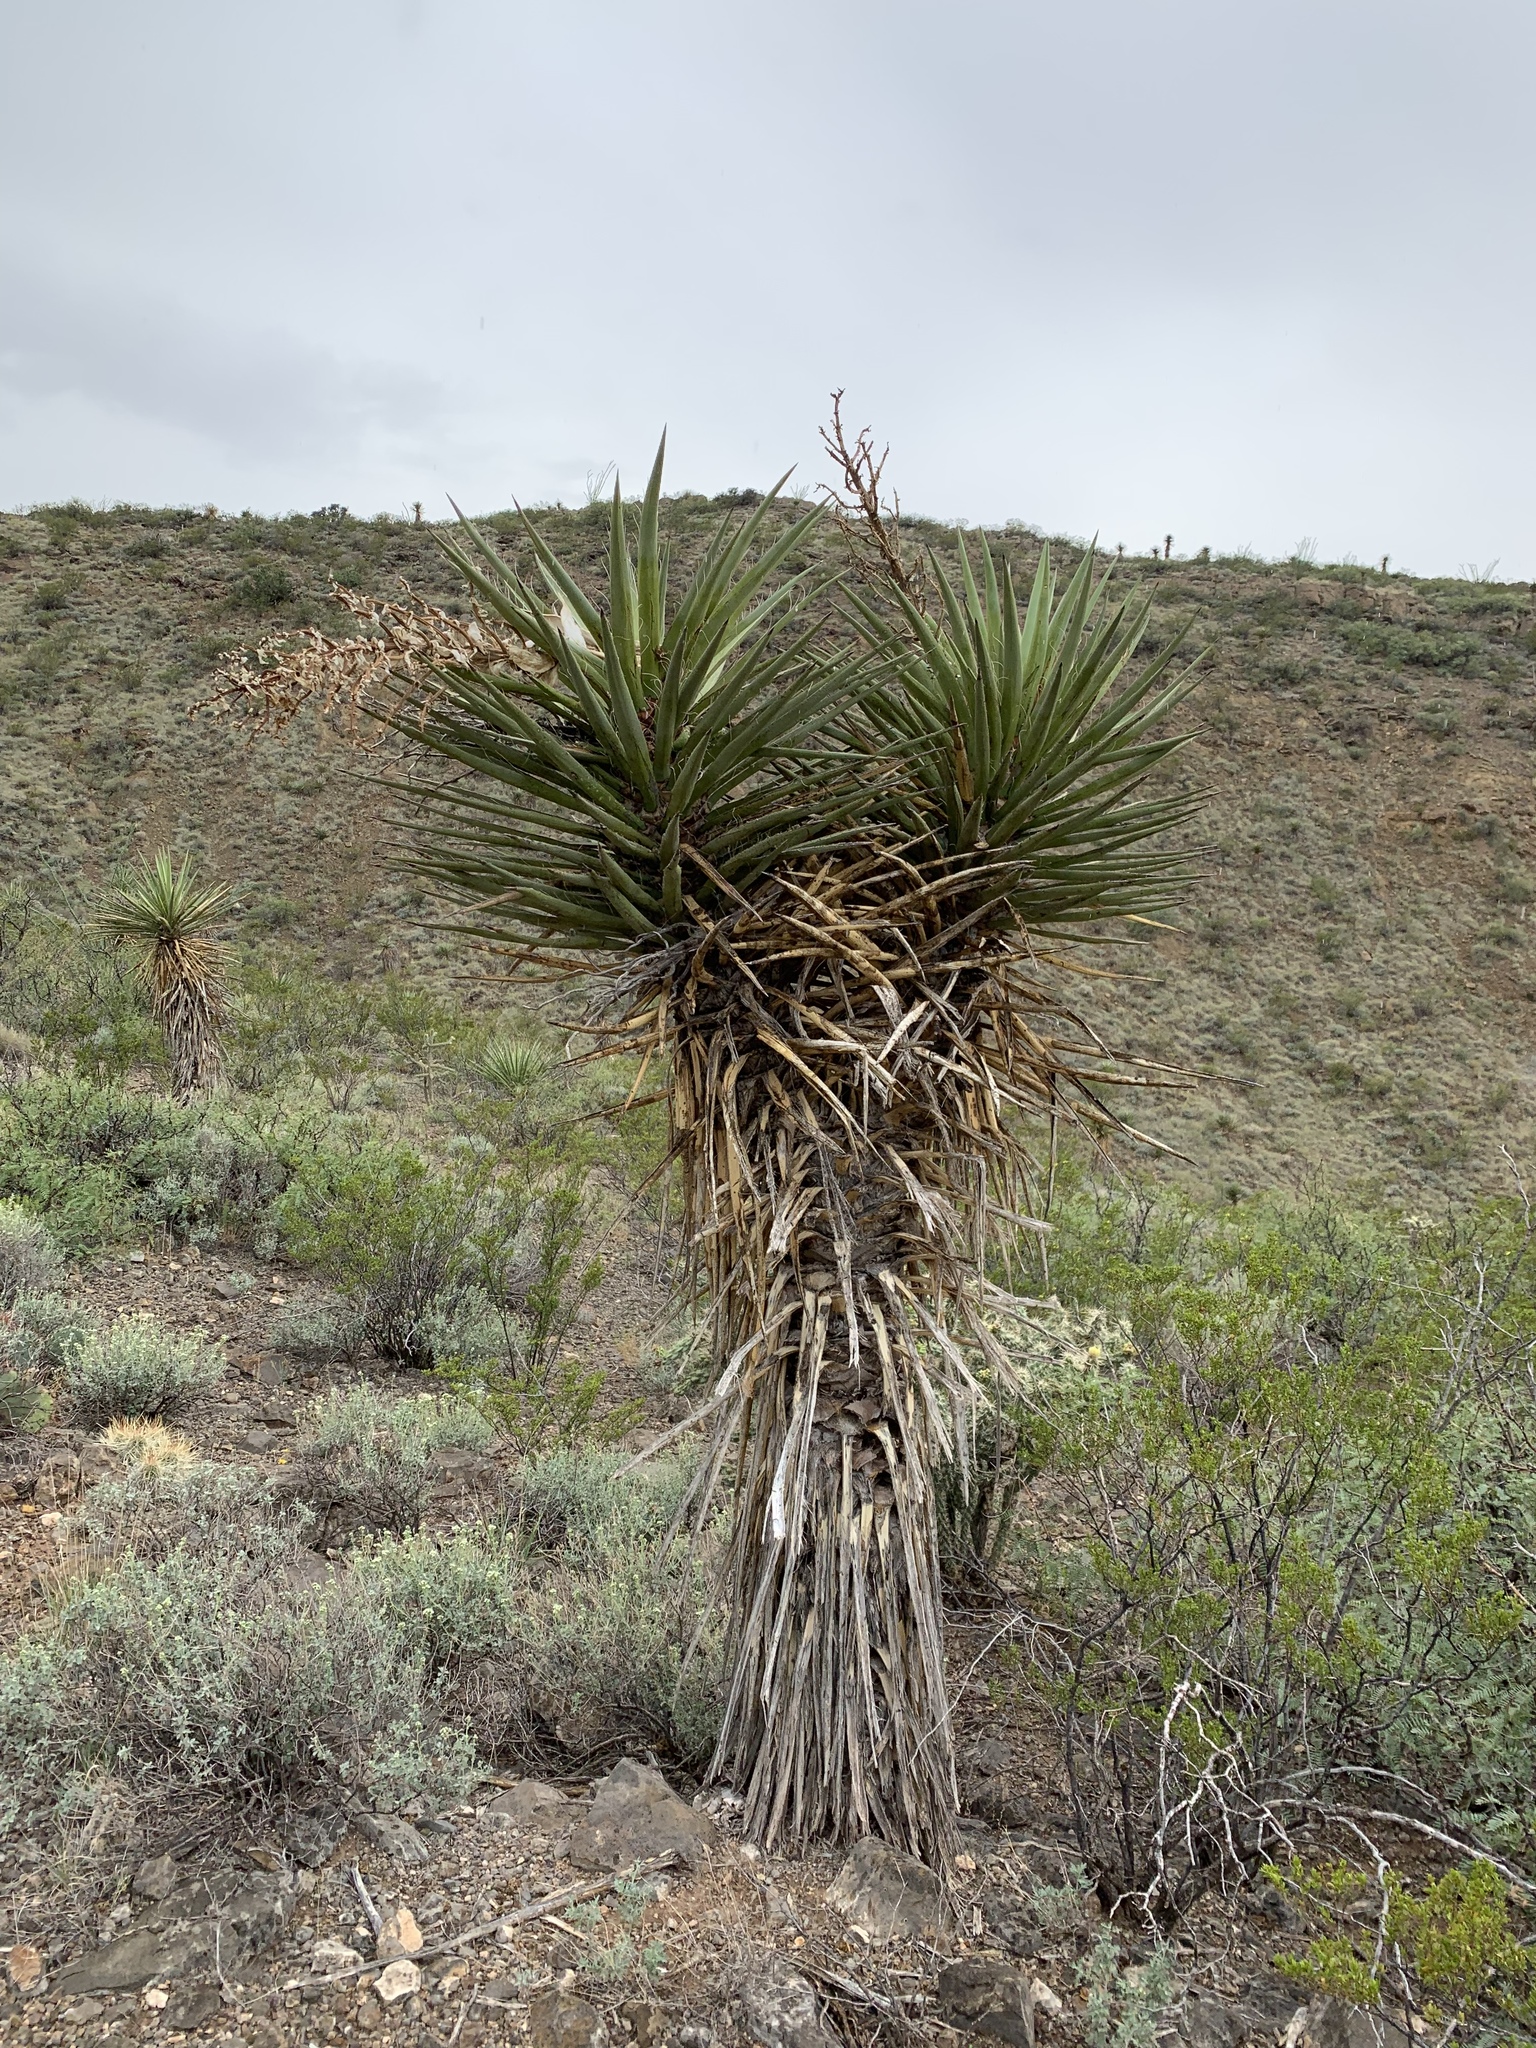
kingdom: Plantae
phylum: Tracheophyta
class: Liliopsida
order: Asparagales
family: Asparagaceae
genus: Yucca
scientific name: Yucca treculiana
